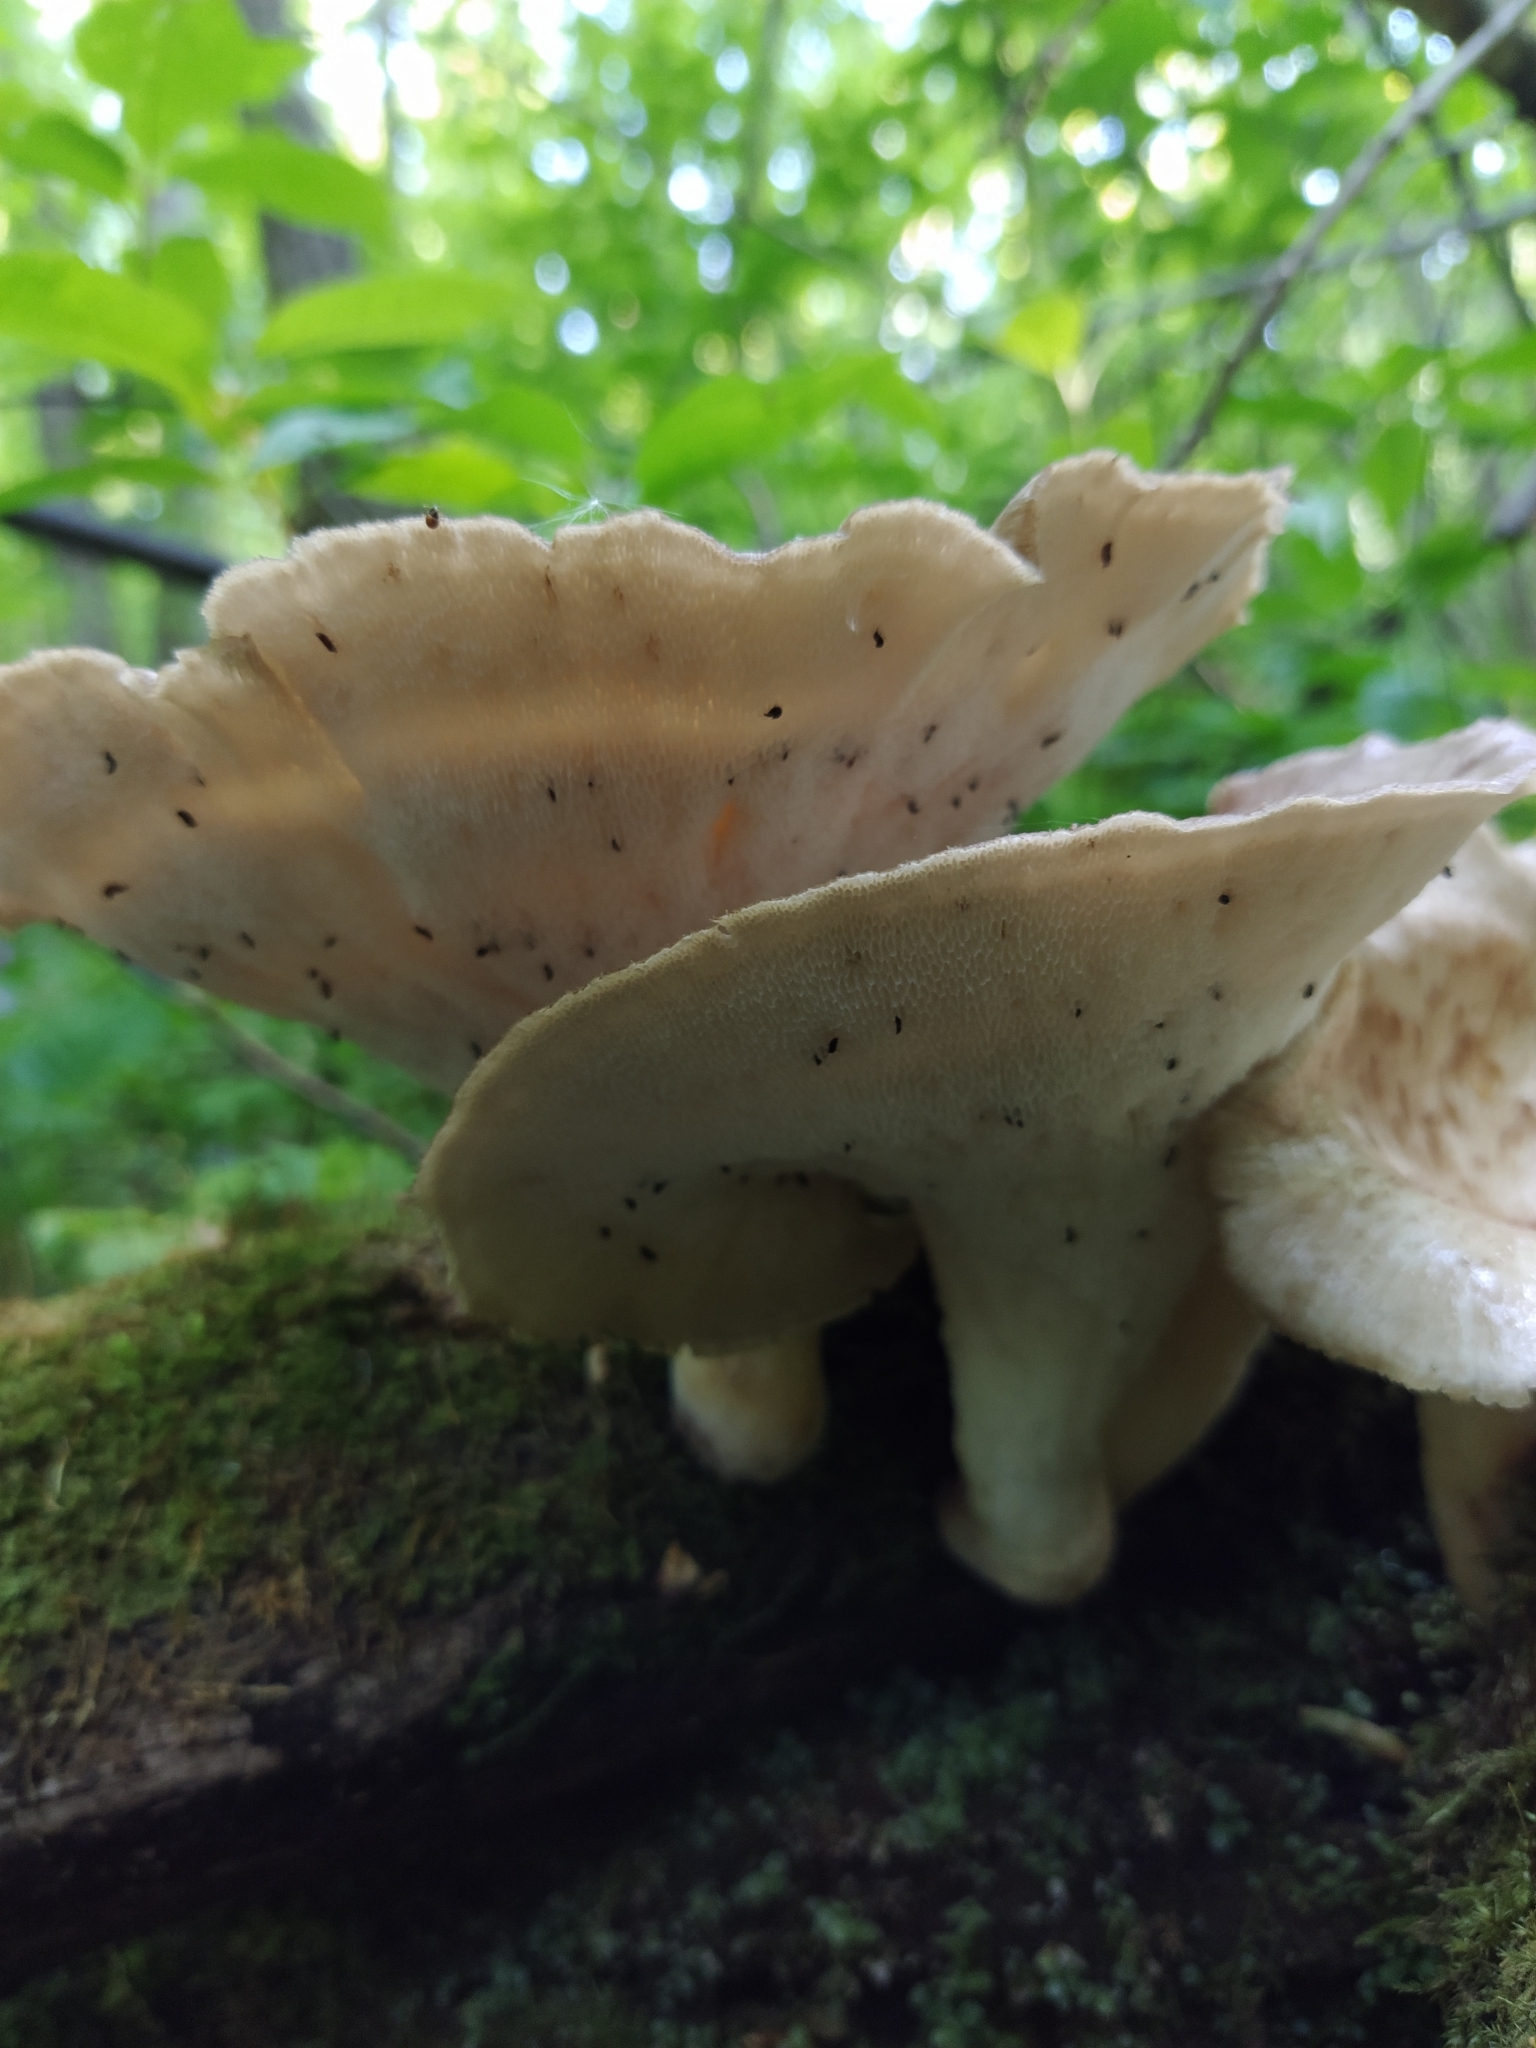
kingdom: Fungi
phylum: Basidiomycota
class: Agaricomycetes
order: Polyporales
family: Polyporaceae
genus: Cerioporus
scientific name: Cerioporus squamosus
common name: Dryad's saddle
